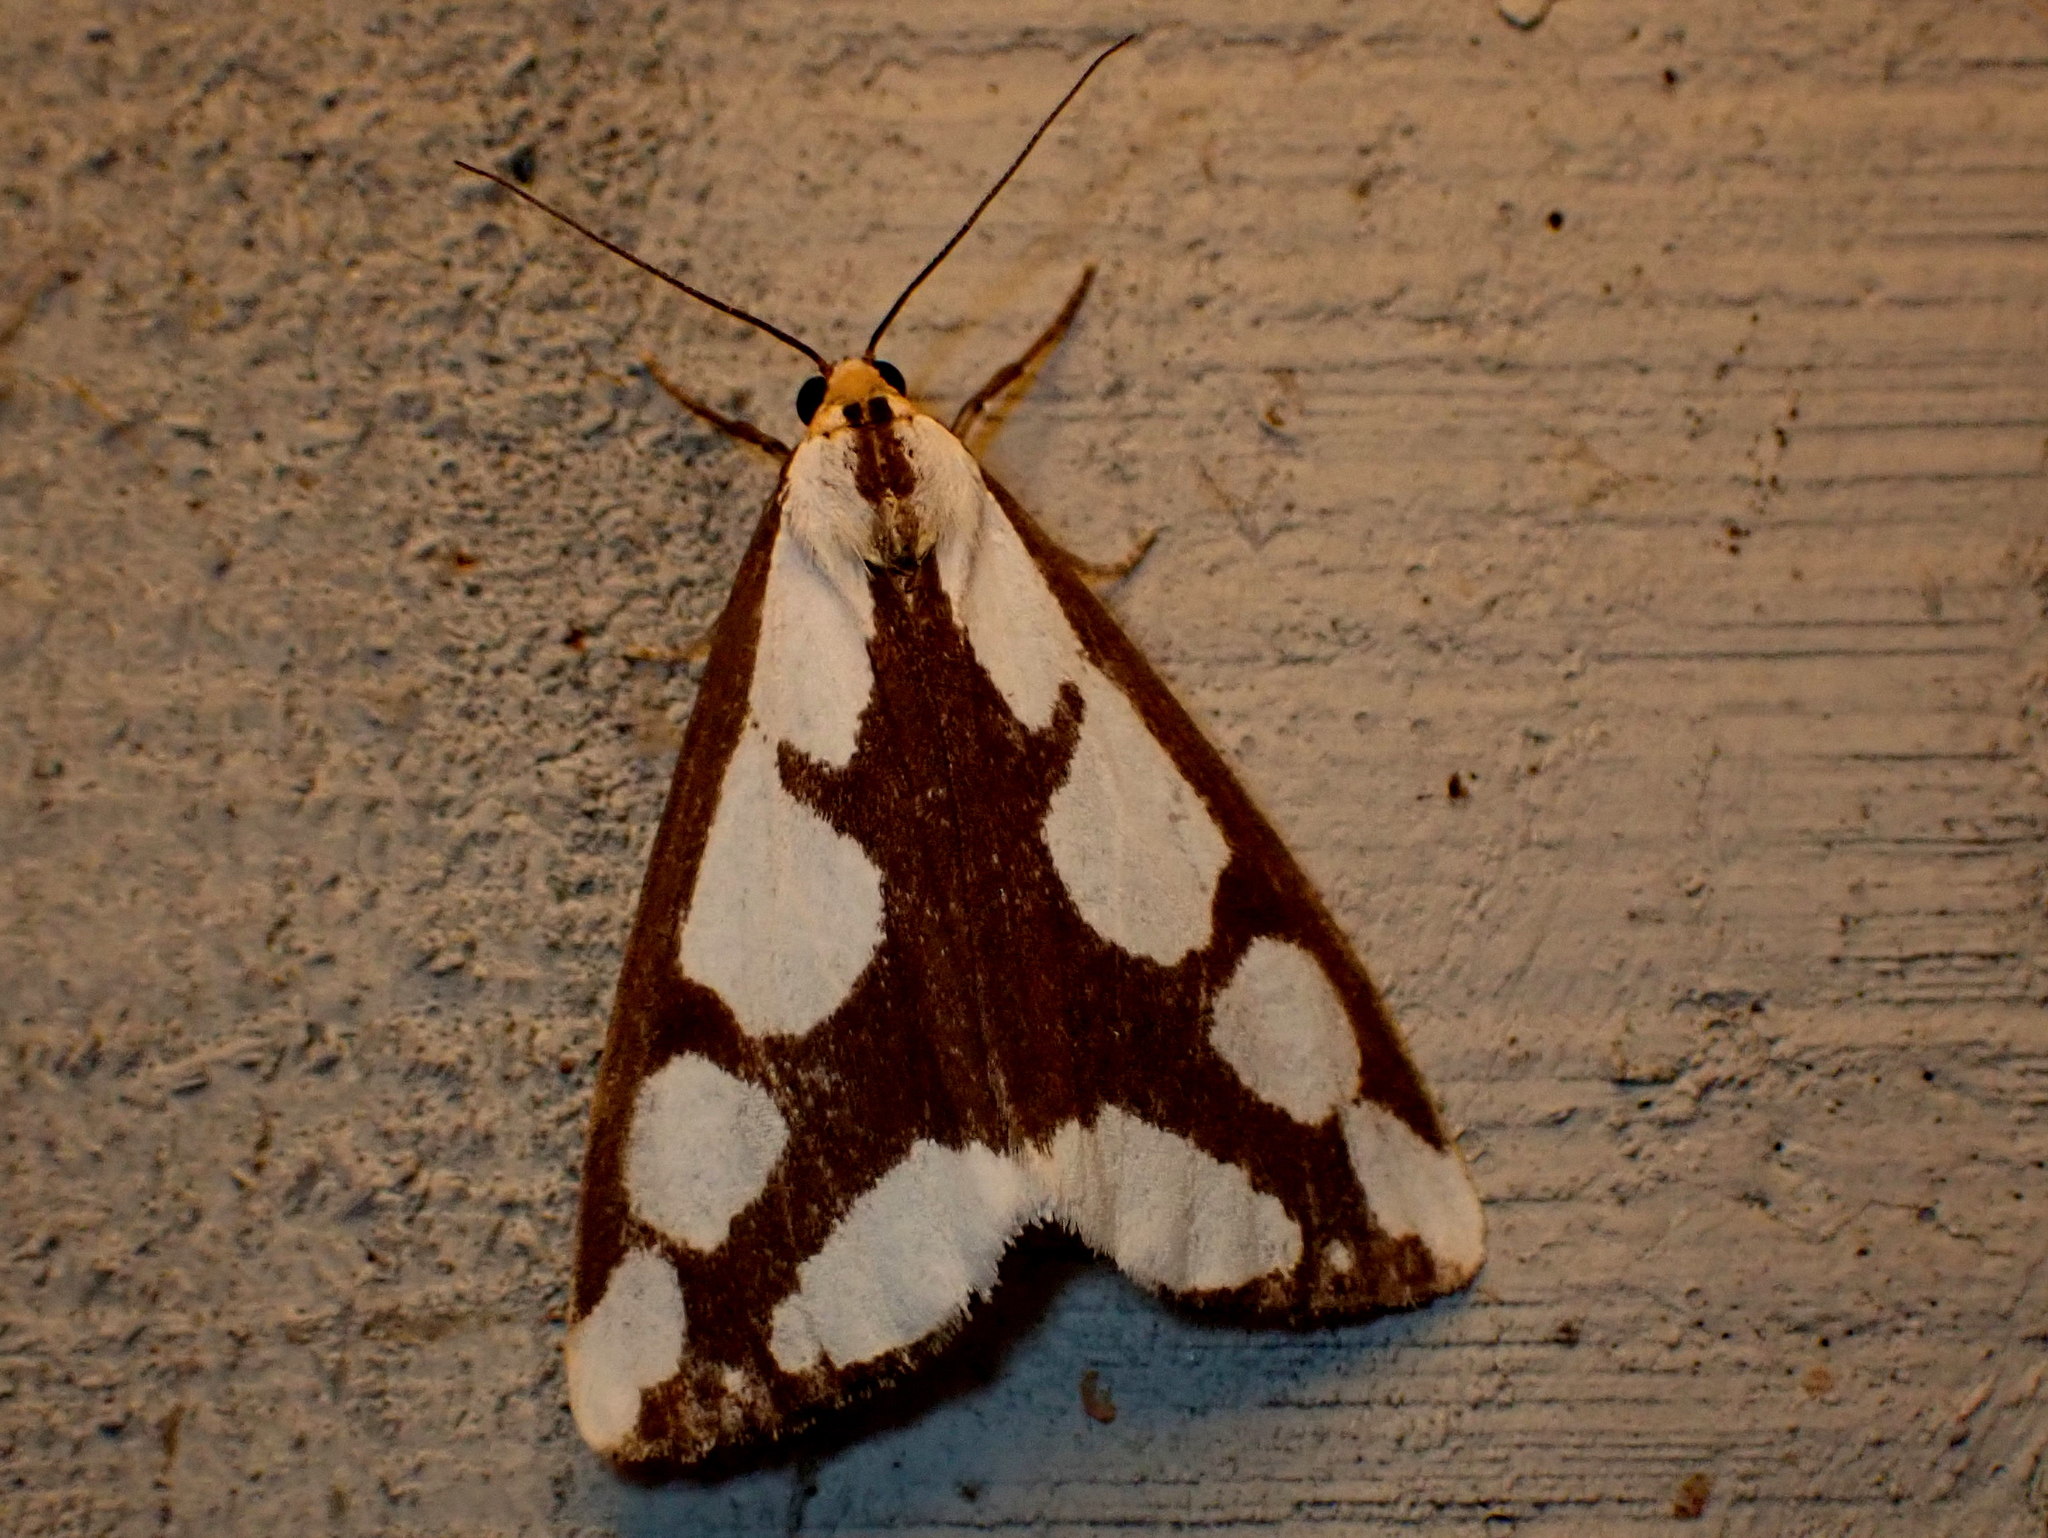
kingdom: Animalia
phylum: Arthropoda
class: Insecta
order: Lepidoptera
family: Erebidae
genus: Haploa
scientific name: Haploa lecontei
